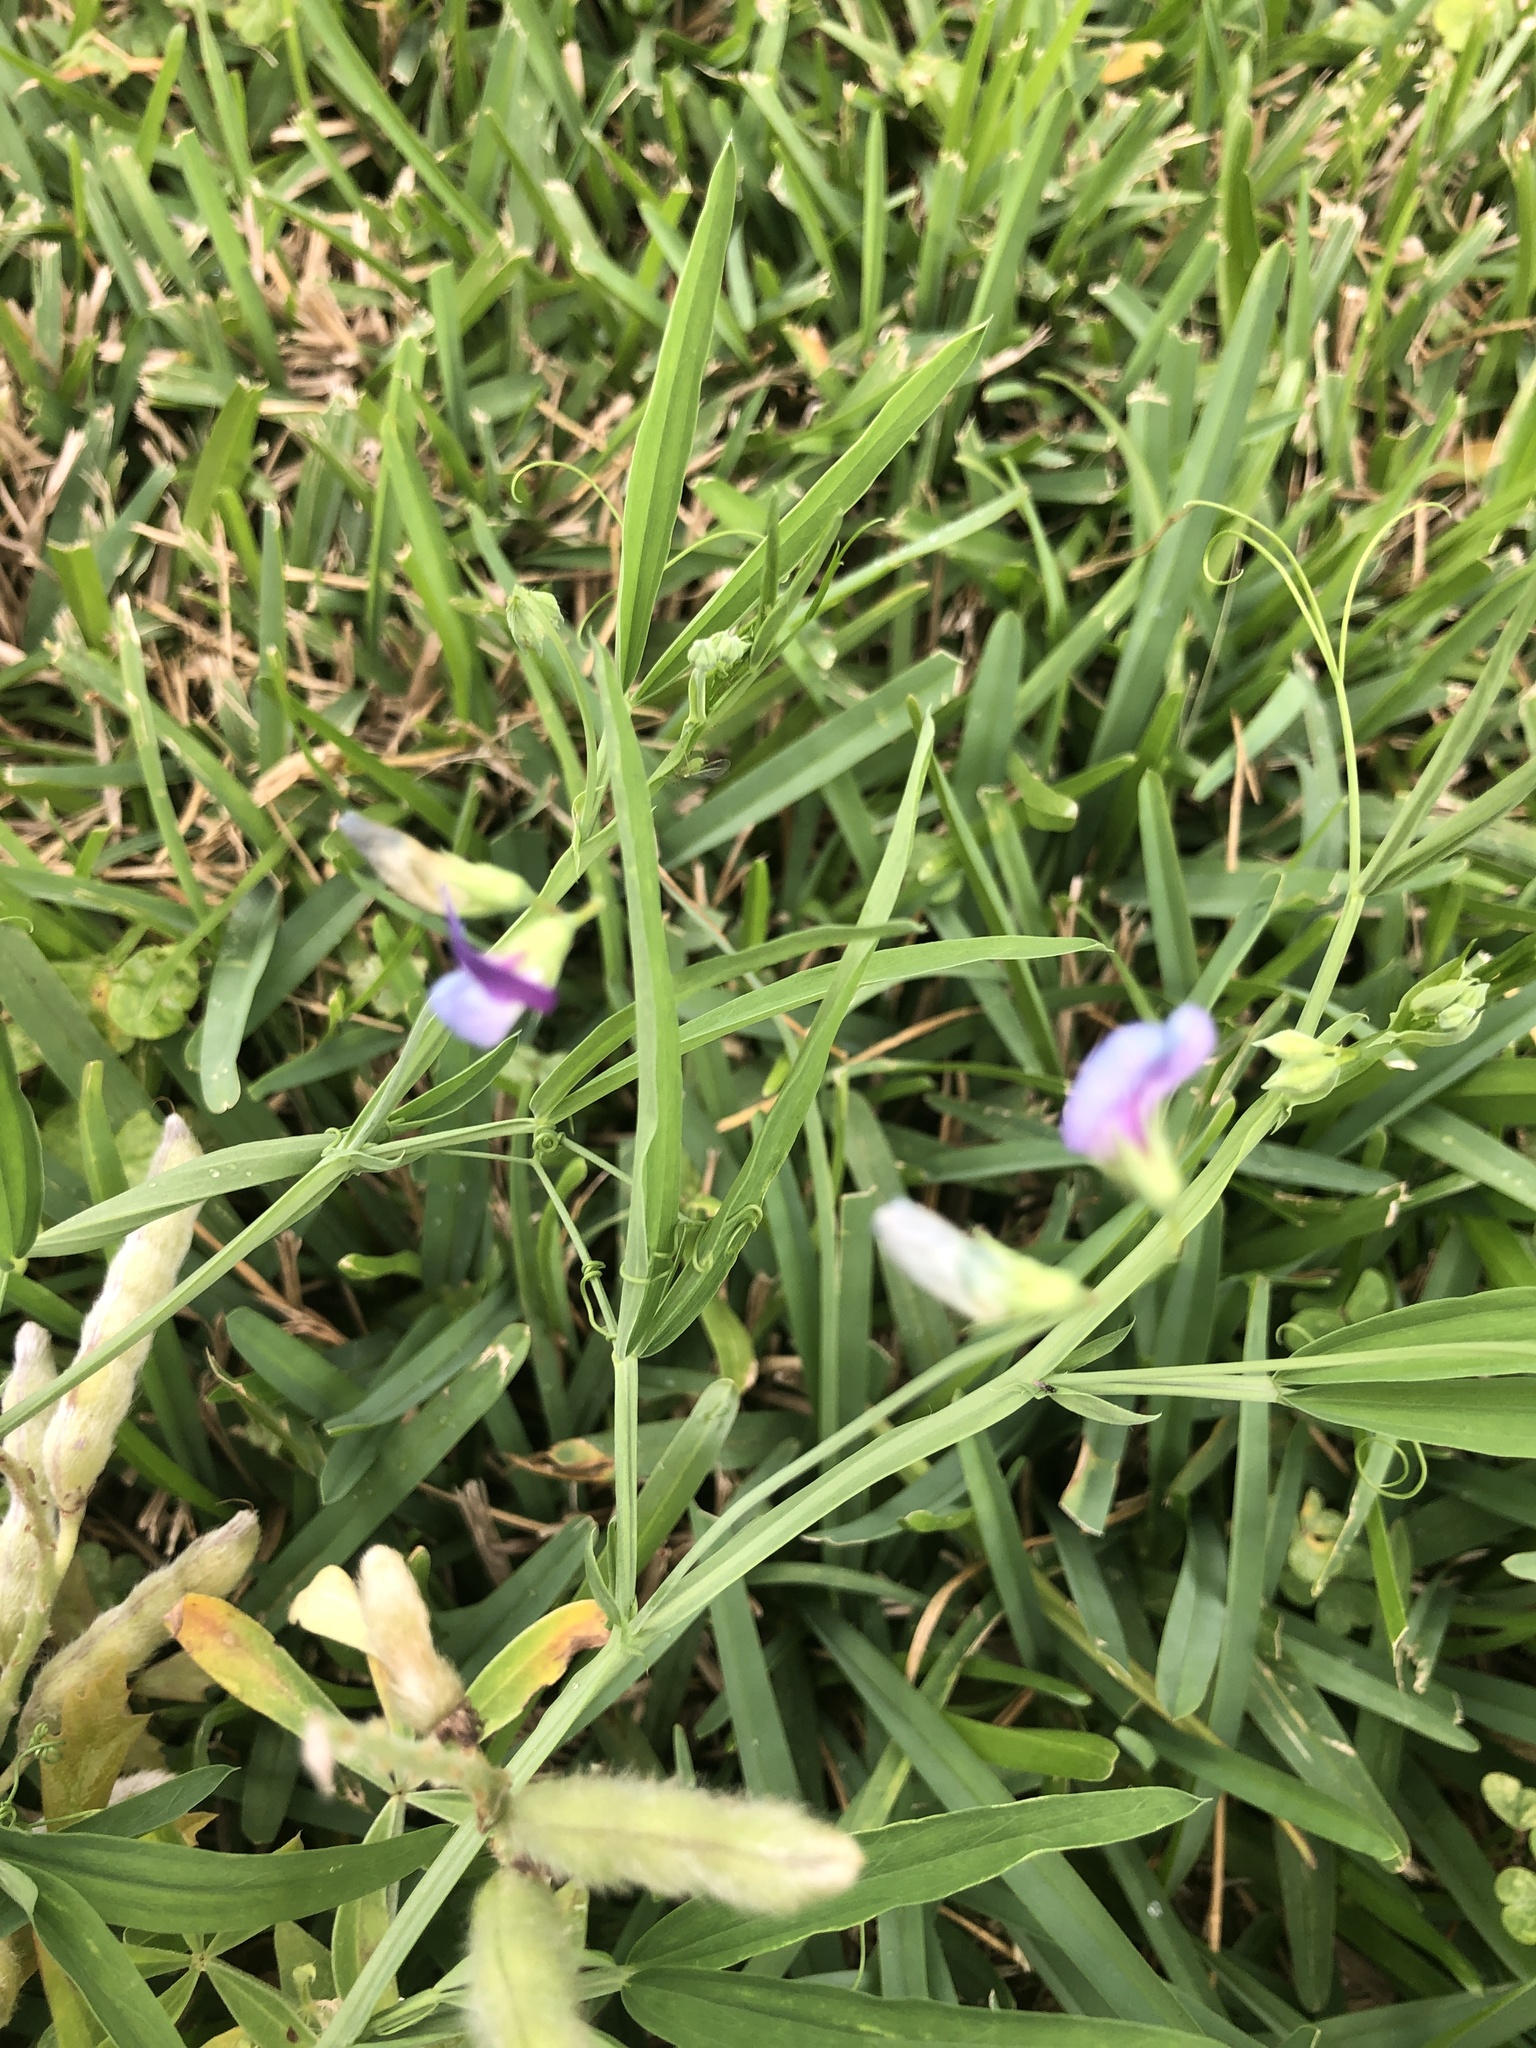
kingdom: Plantae
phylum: Tracheophyta
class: Magnoliopsida
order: Fabales
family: Fabaceae
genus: Lathyrus
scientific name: Lathyrus hirsutus
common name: Hairy vetchling
